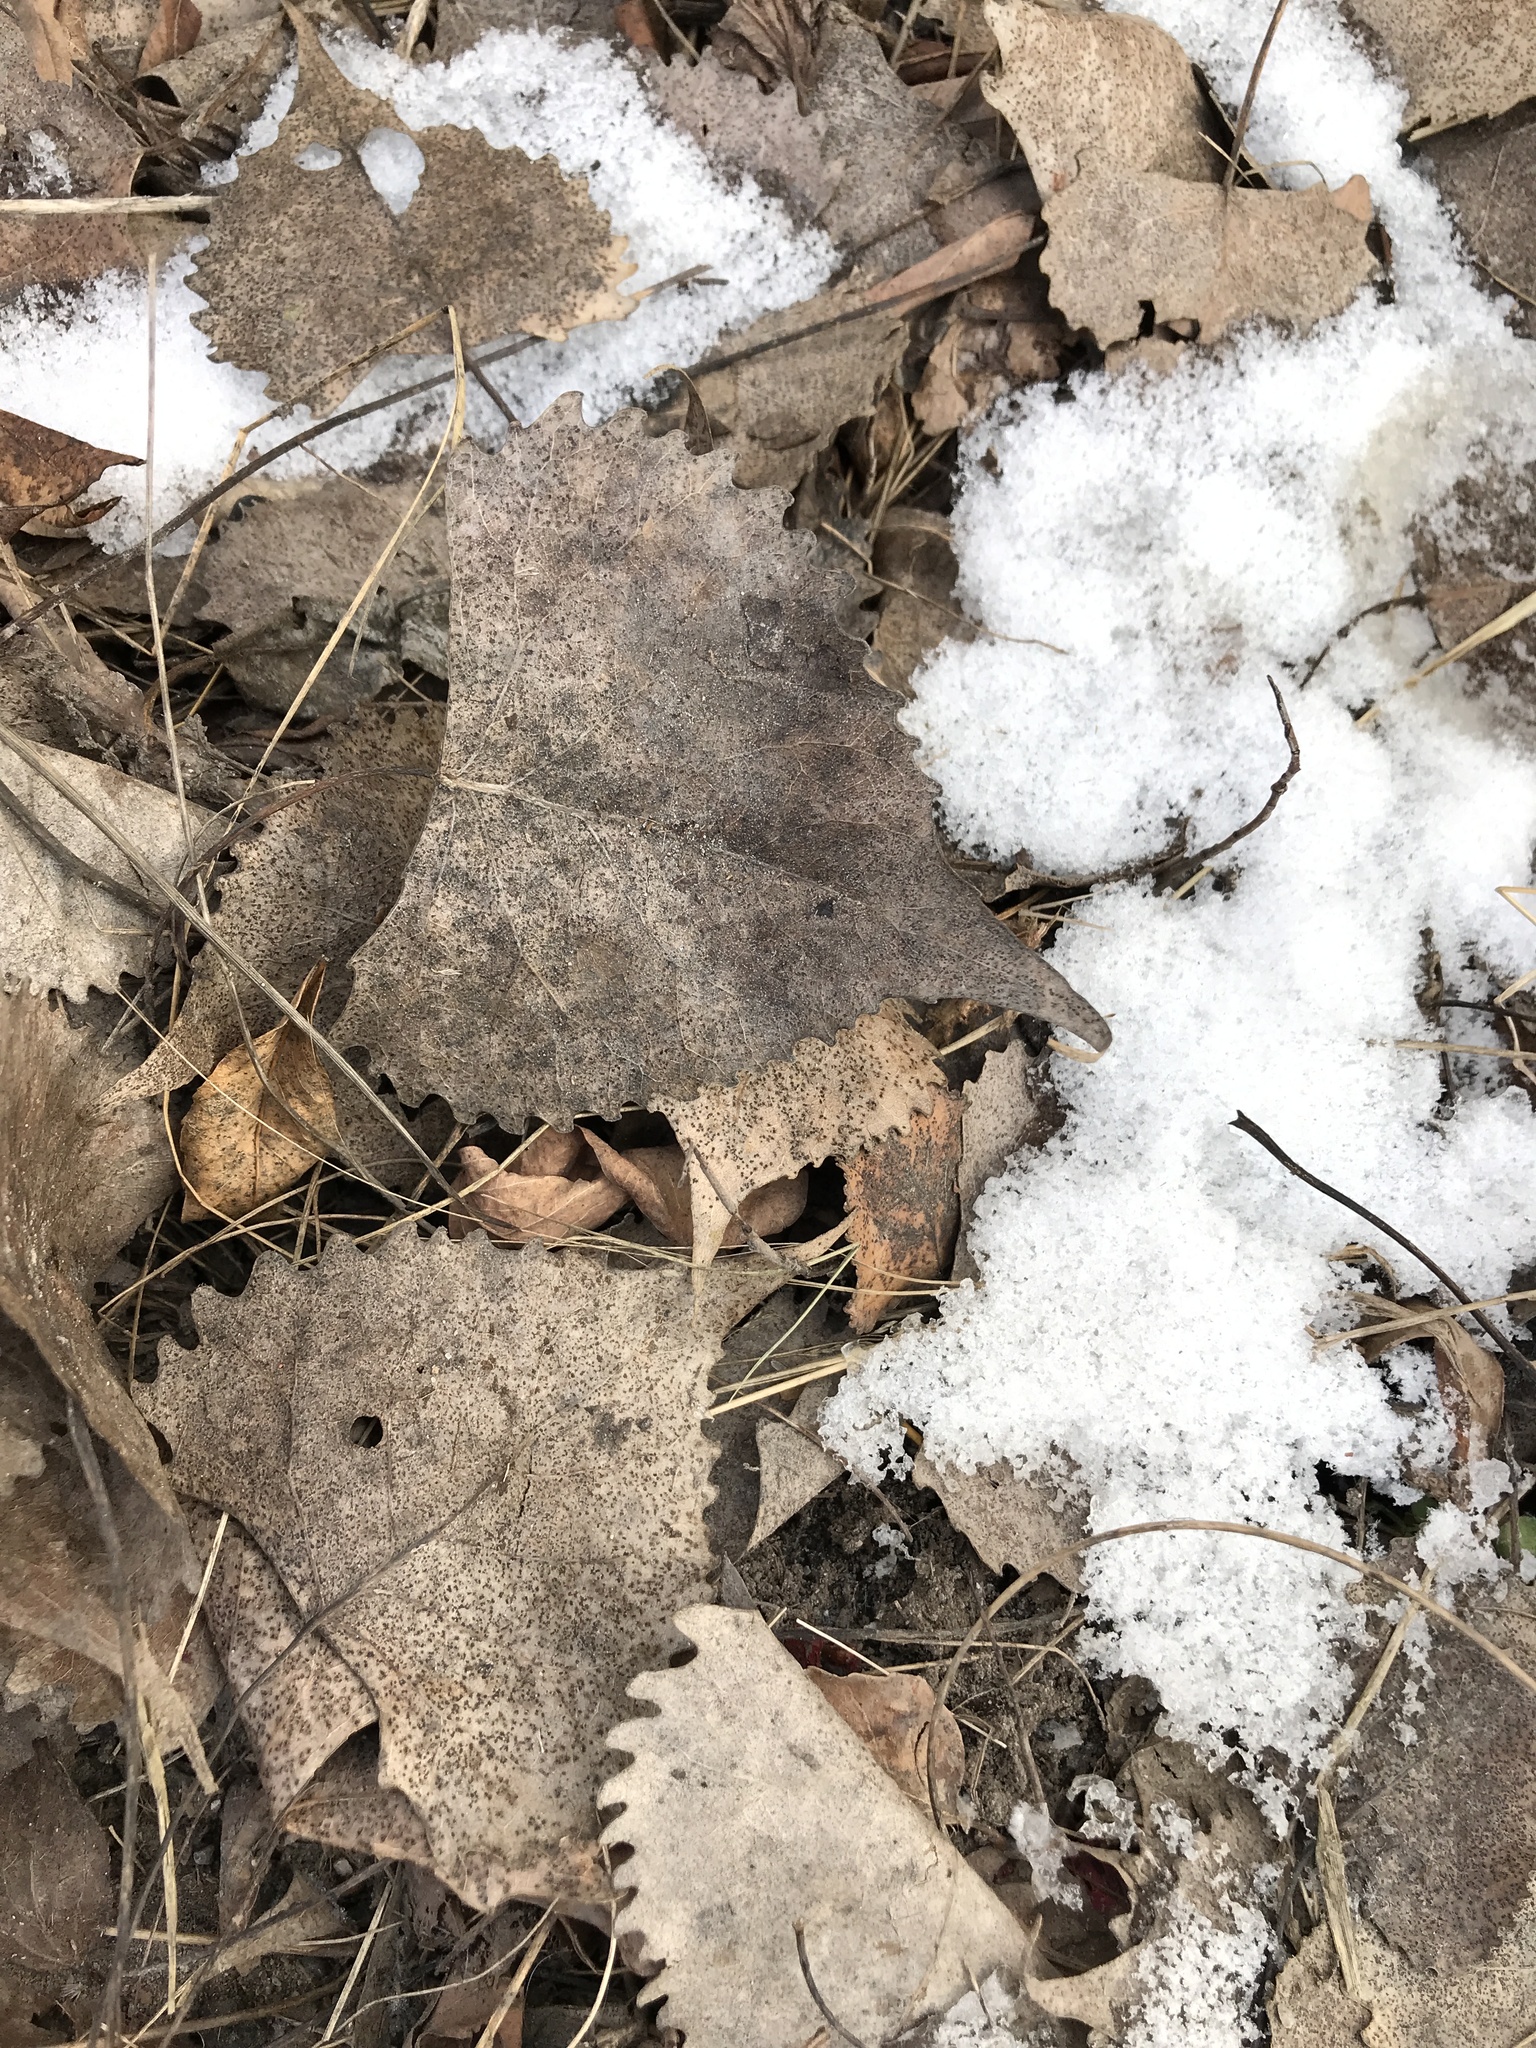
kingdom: Plantae
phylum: Tracheophyta
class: Magnoliopsida
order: Malpighiales
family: Salicaceae
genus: Populus
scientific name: Populus deltoides
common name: Eastern cottonwood
